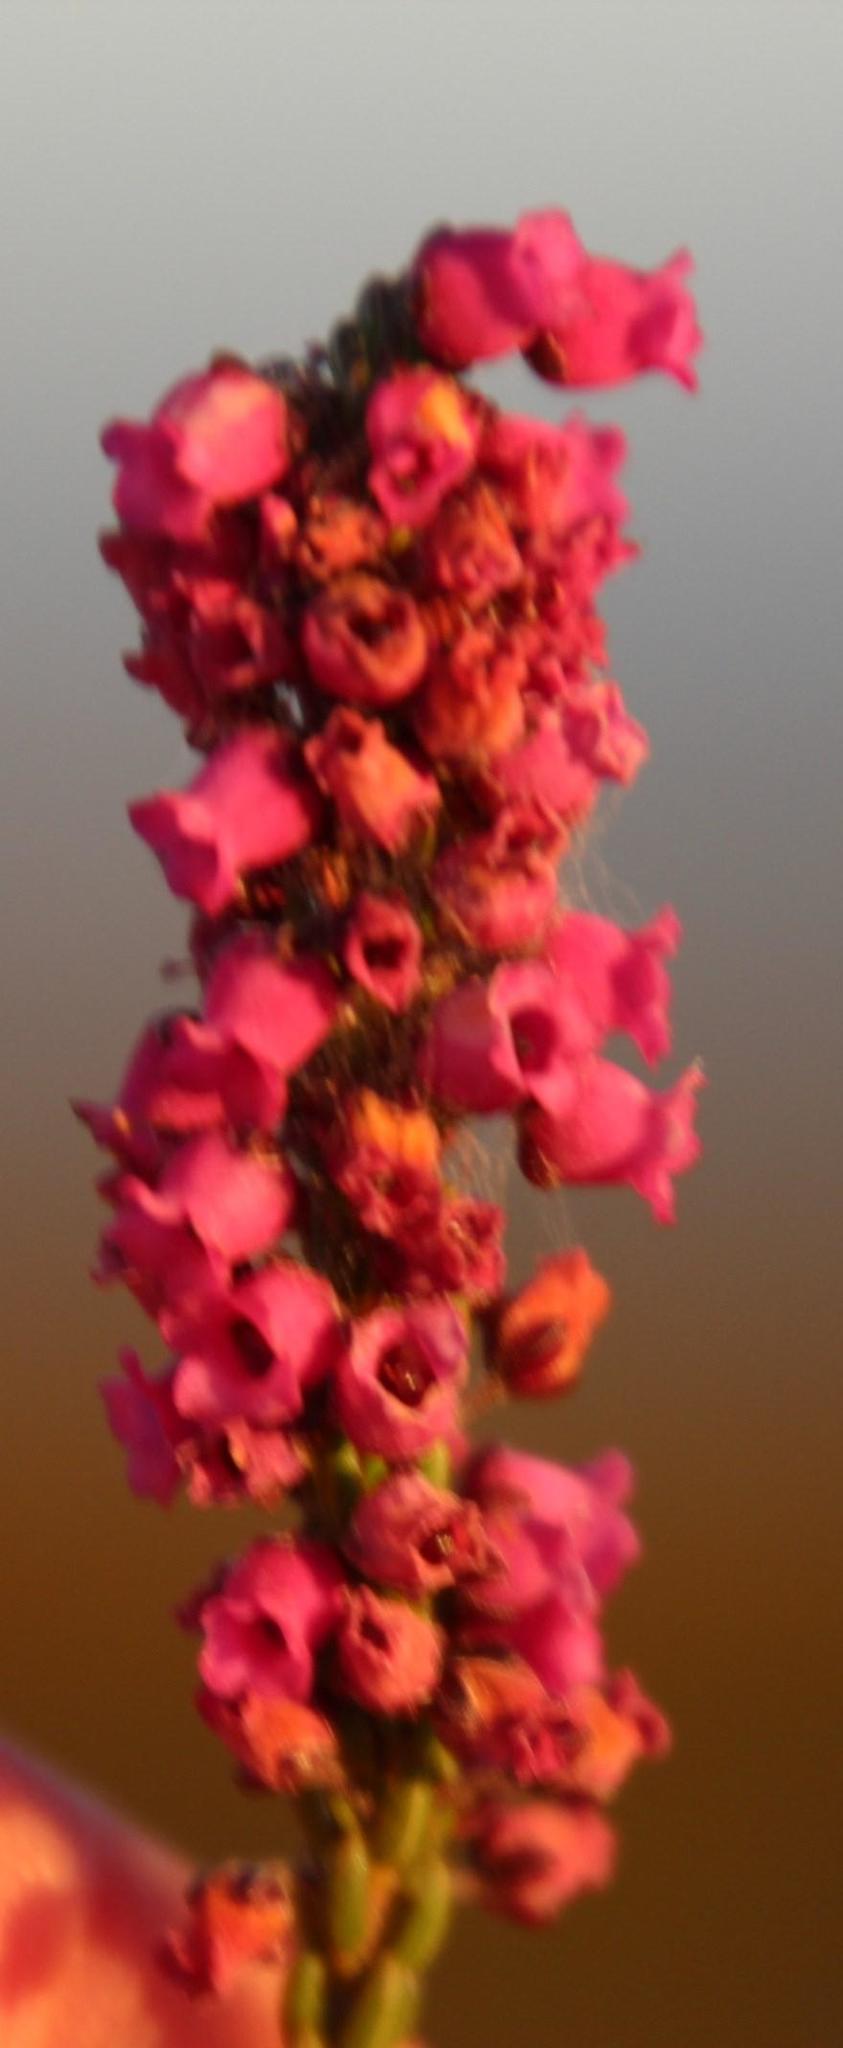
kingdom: Plantae
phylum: Tracheophyta
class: Magnoliopsida
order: Ericales
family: Ericaceae
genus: Erica
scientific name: Erica pulchella
